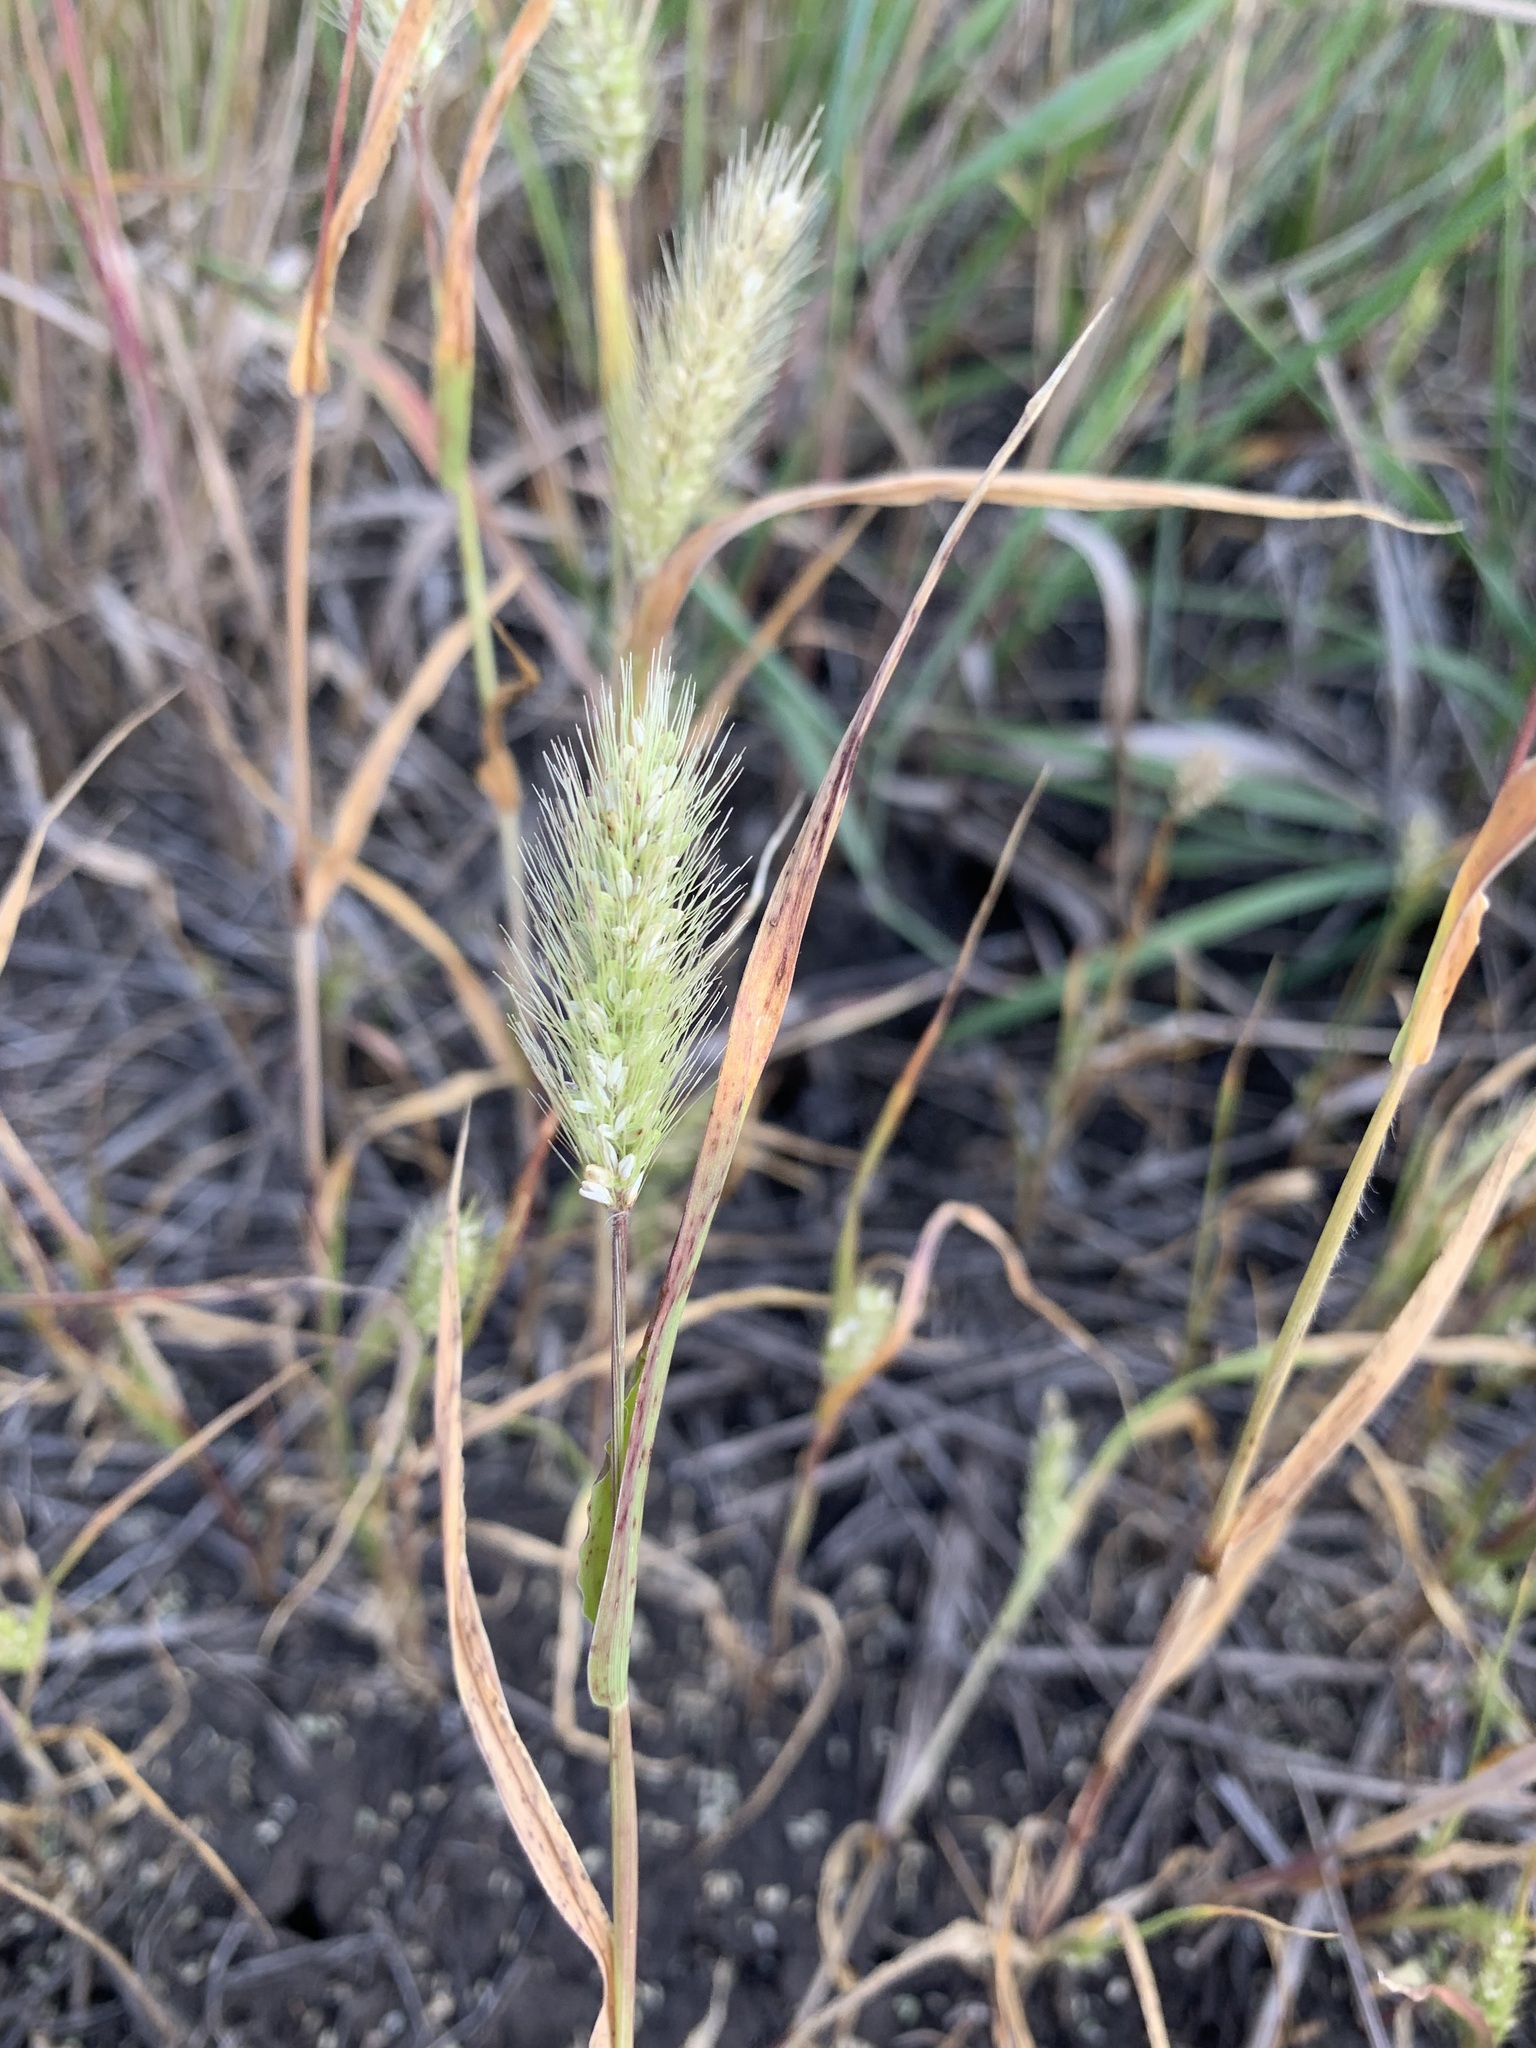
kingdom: Plantae
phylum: Tracheophyta
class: Liliopsida
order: Poales
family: Poaceae
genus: Setaria
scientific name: Setaria viridis
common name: Green bristlegrass
